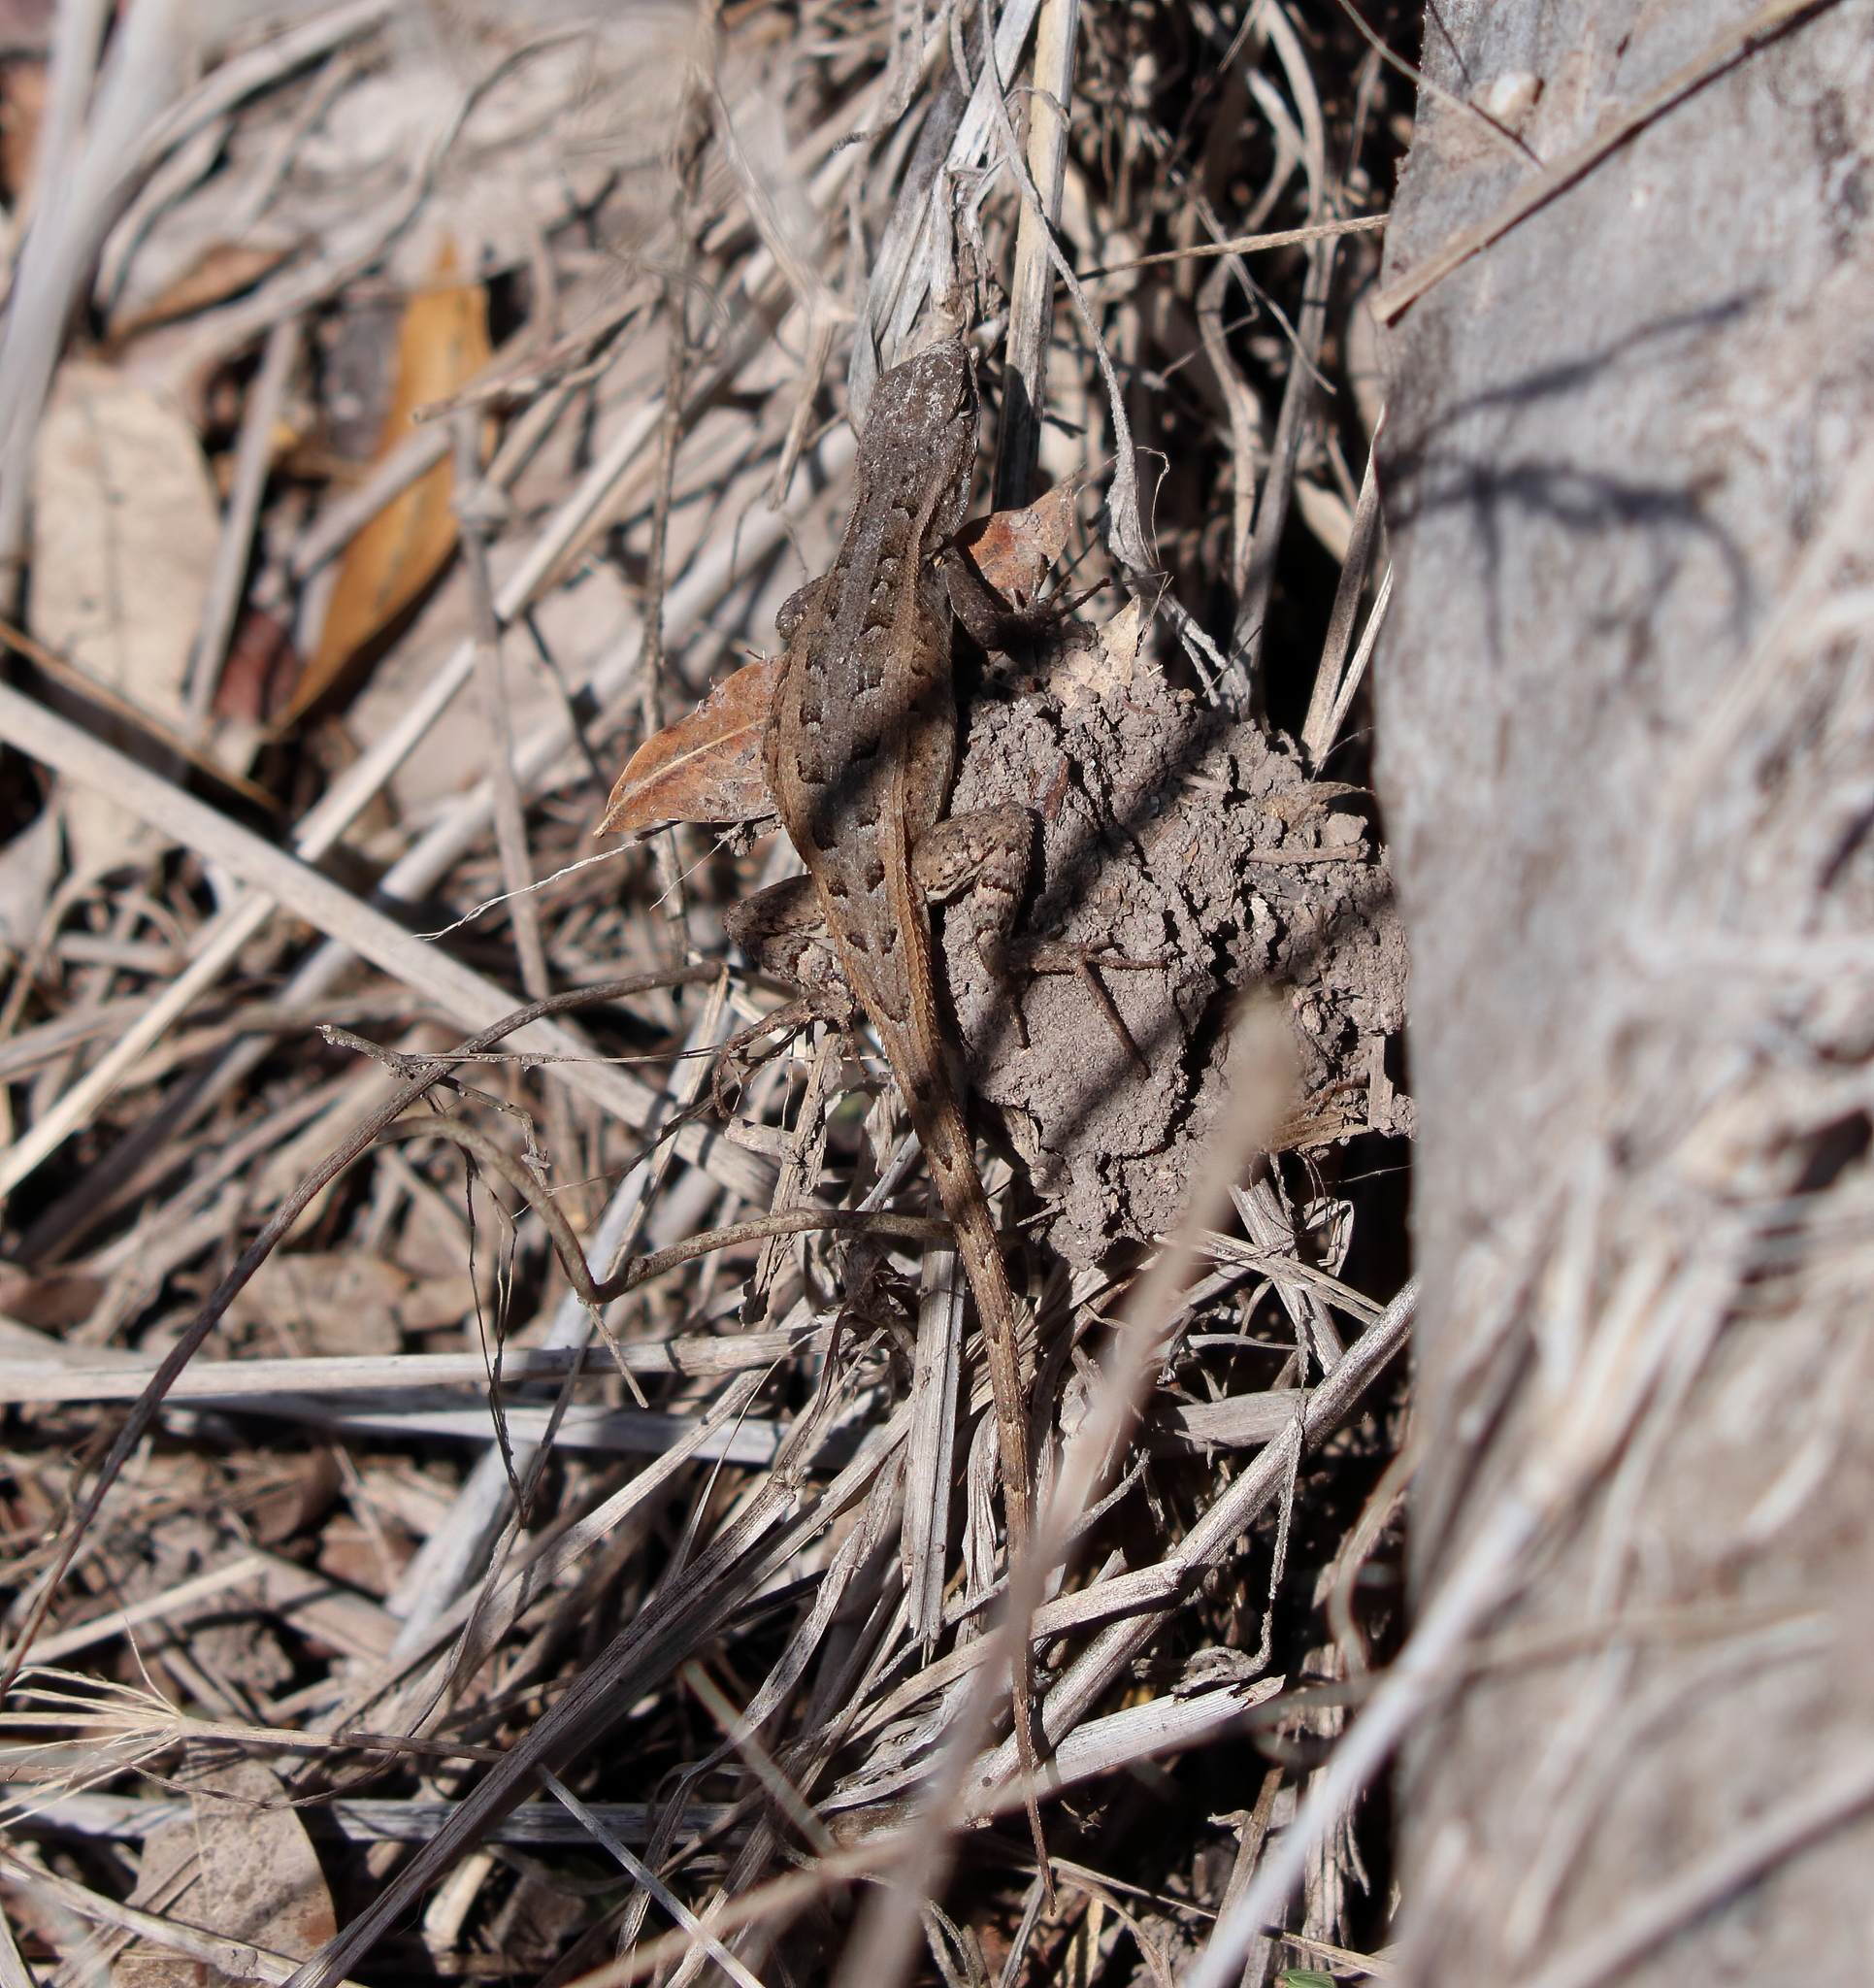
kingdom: Animalia
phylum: Chordata
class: Squamata
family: Phrynosomatidae
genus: Sceloporus
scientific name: Sceloporus variabilis
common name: Rosebelly lizard
